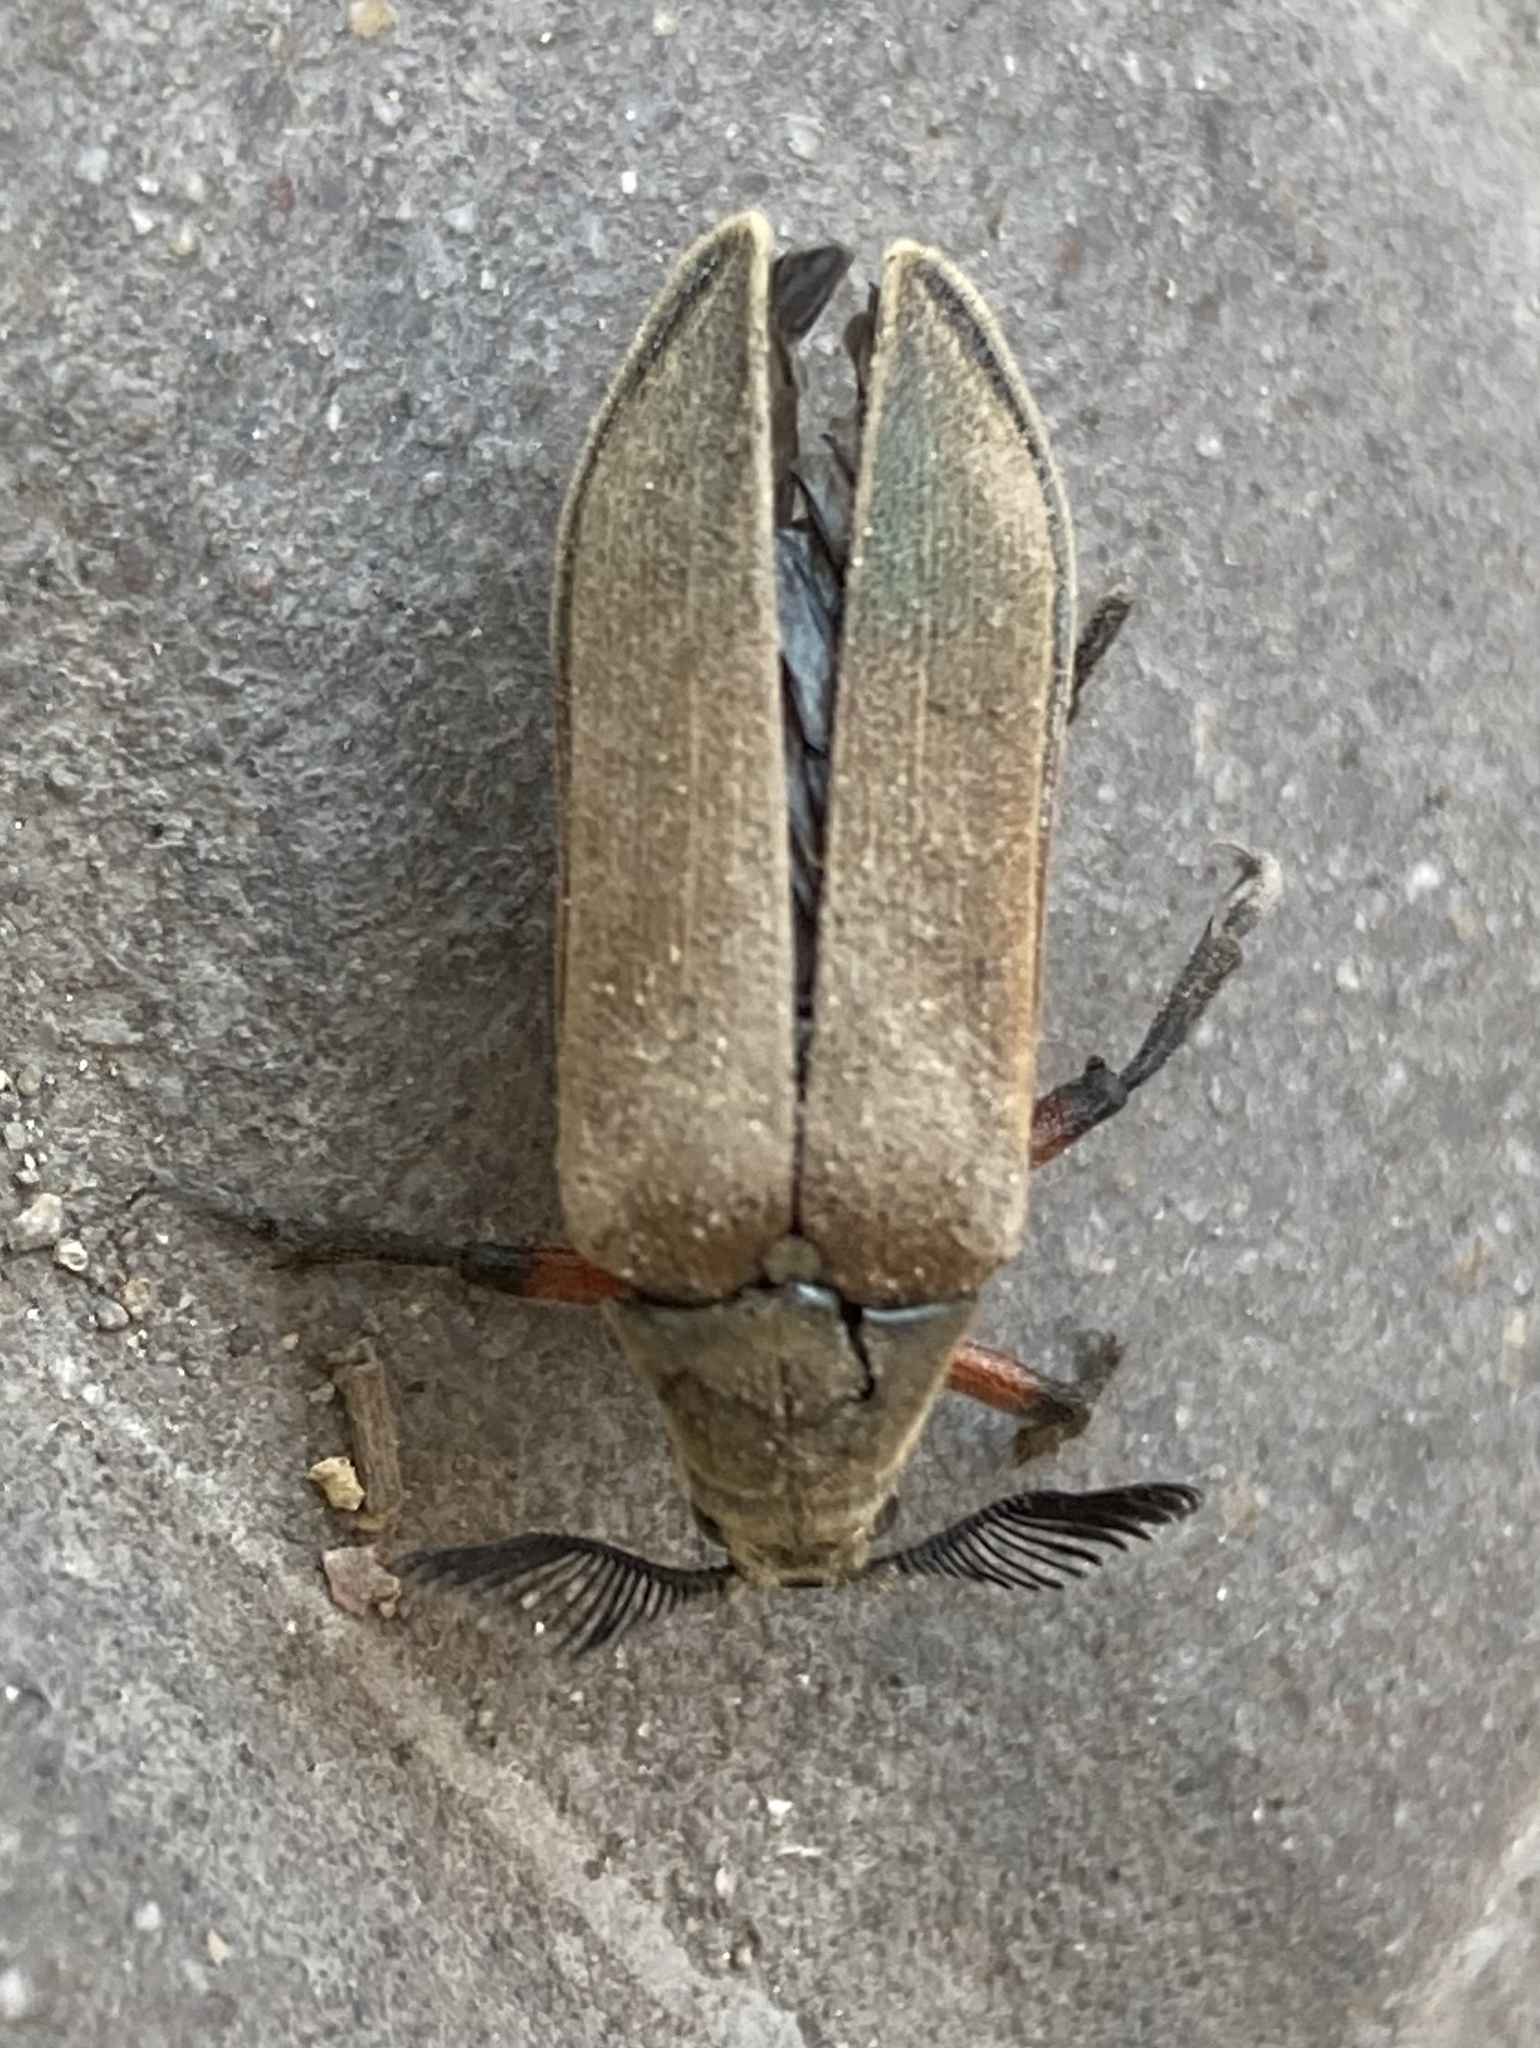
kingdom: Animalia
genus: Polytomus
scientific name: Polytomus
